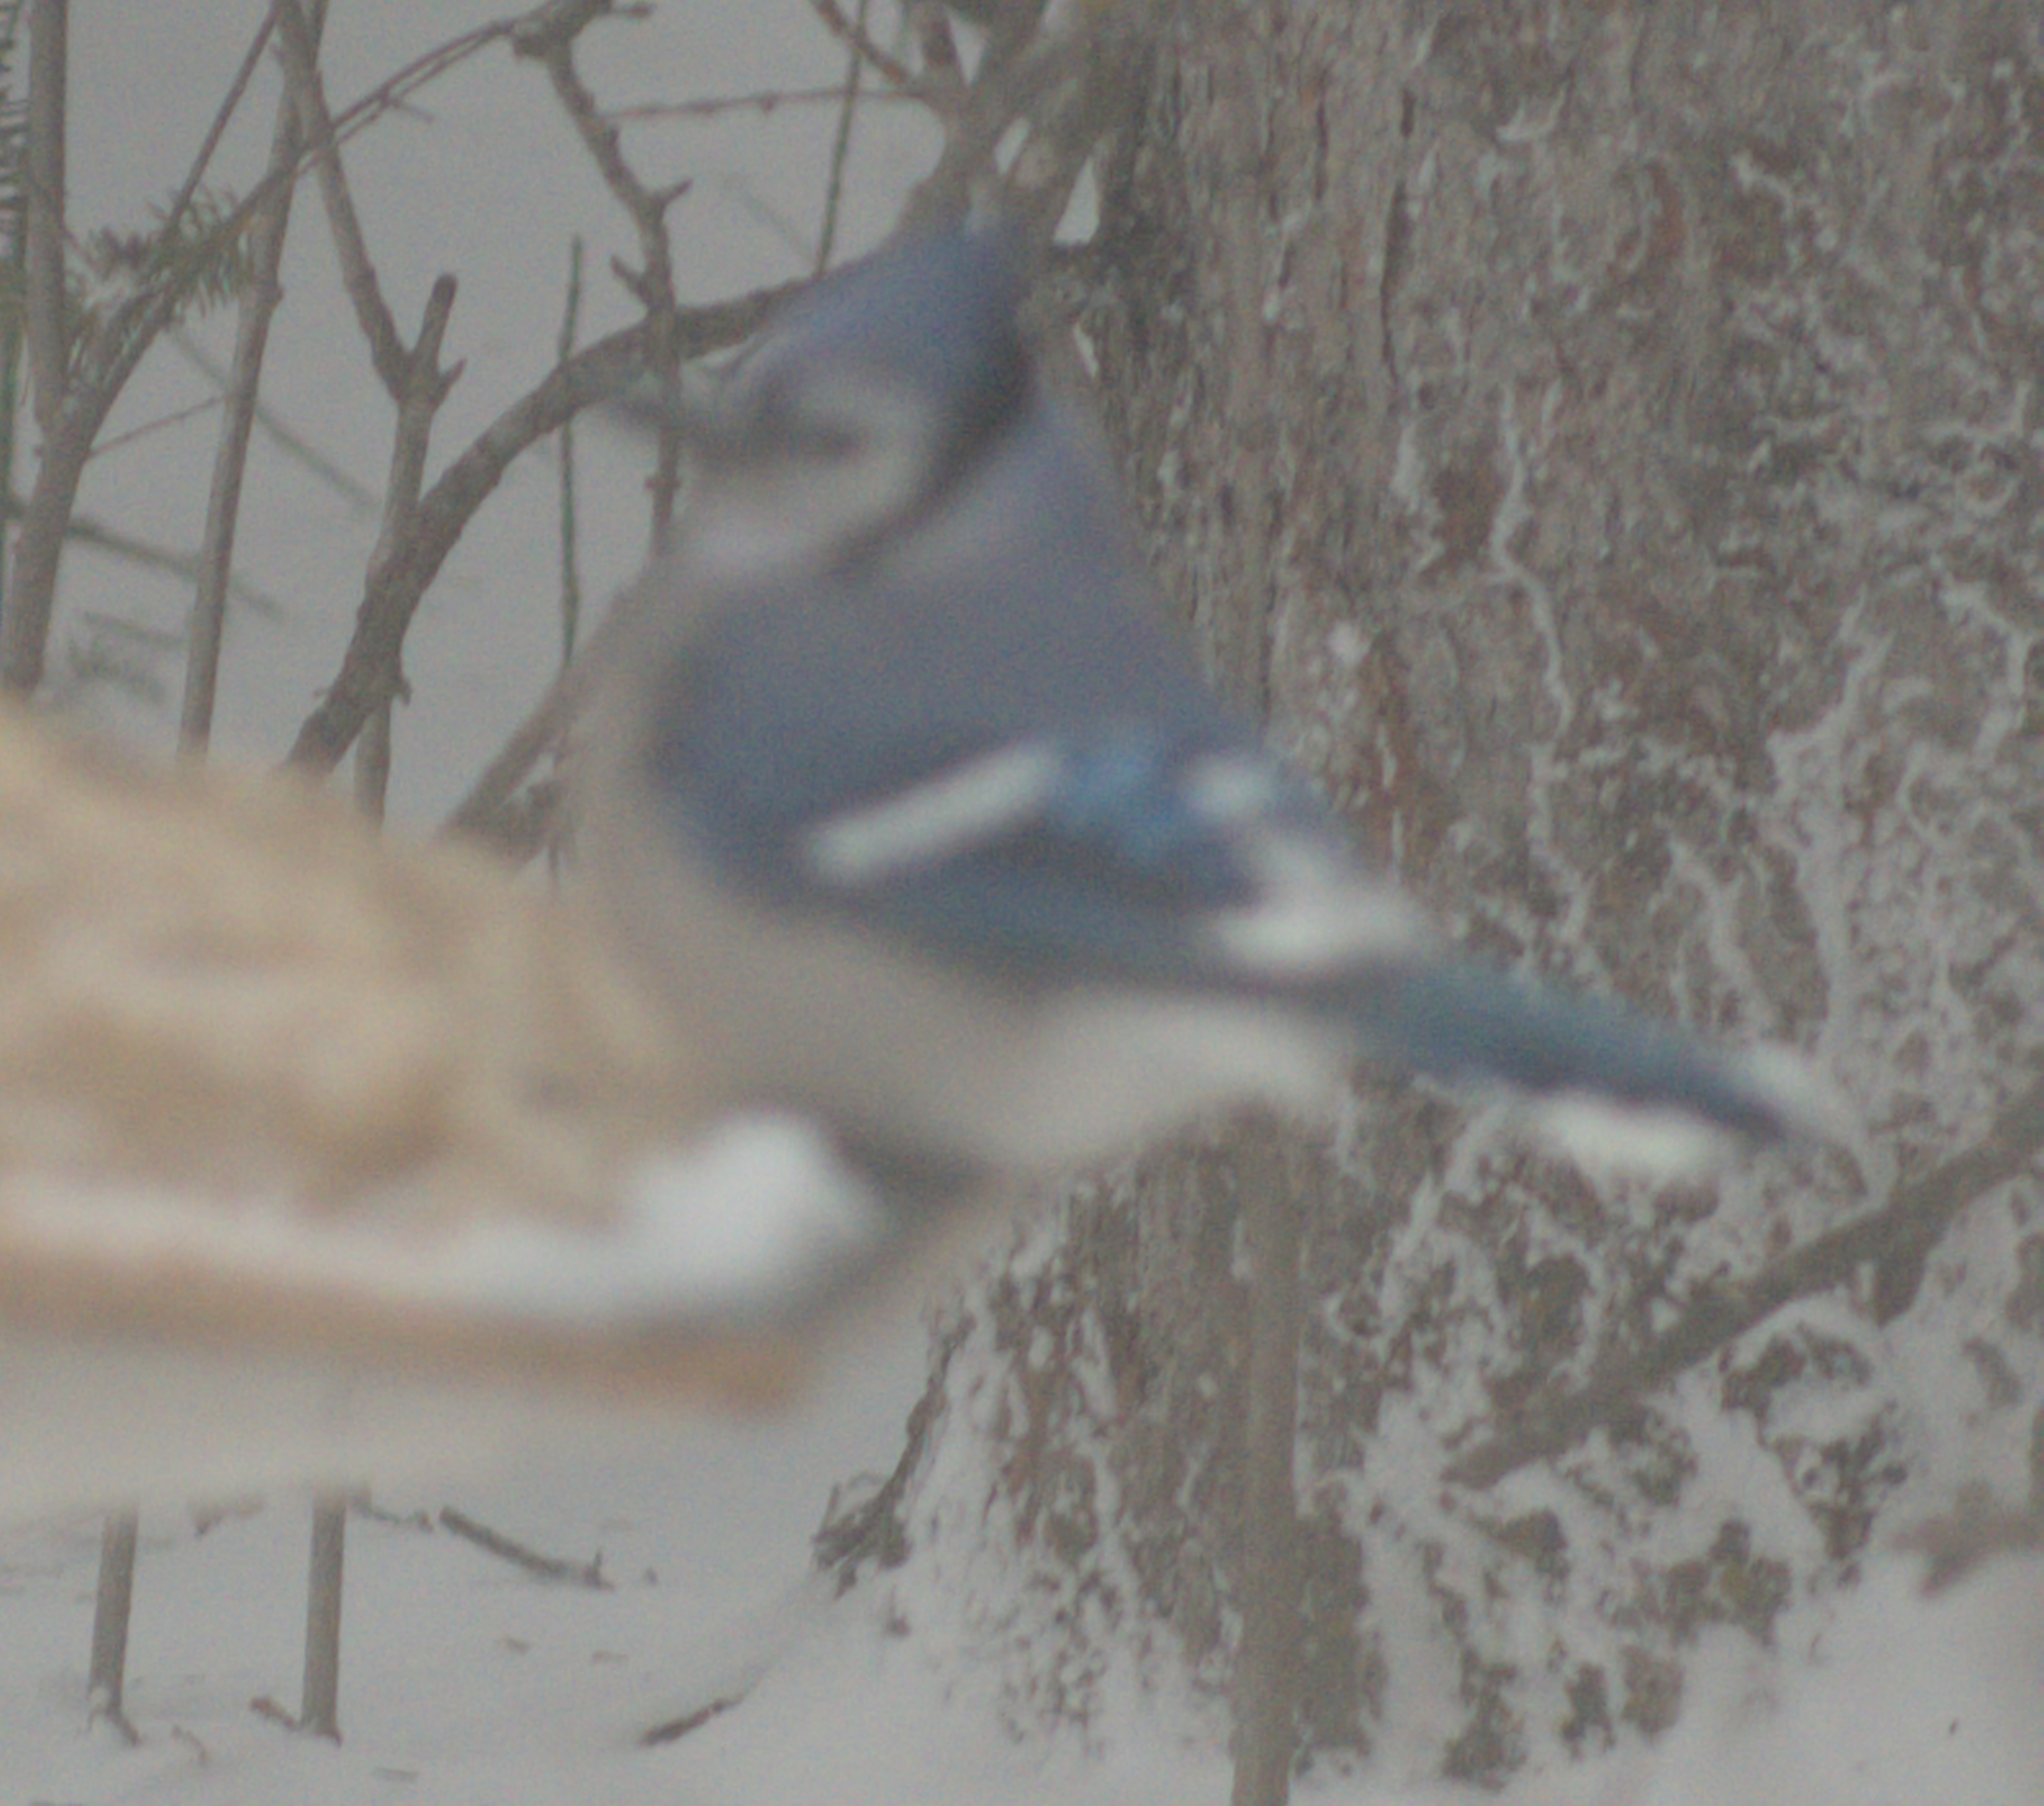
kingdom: Animalia
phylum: Chordata
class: Aves
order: Passeriformes
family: Corvidae
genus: Cyanocitta
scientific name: Cyanocitta cristata
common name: Blue jay
